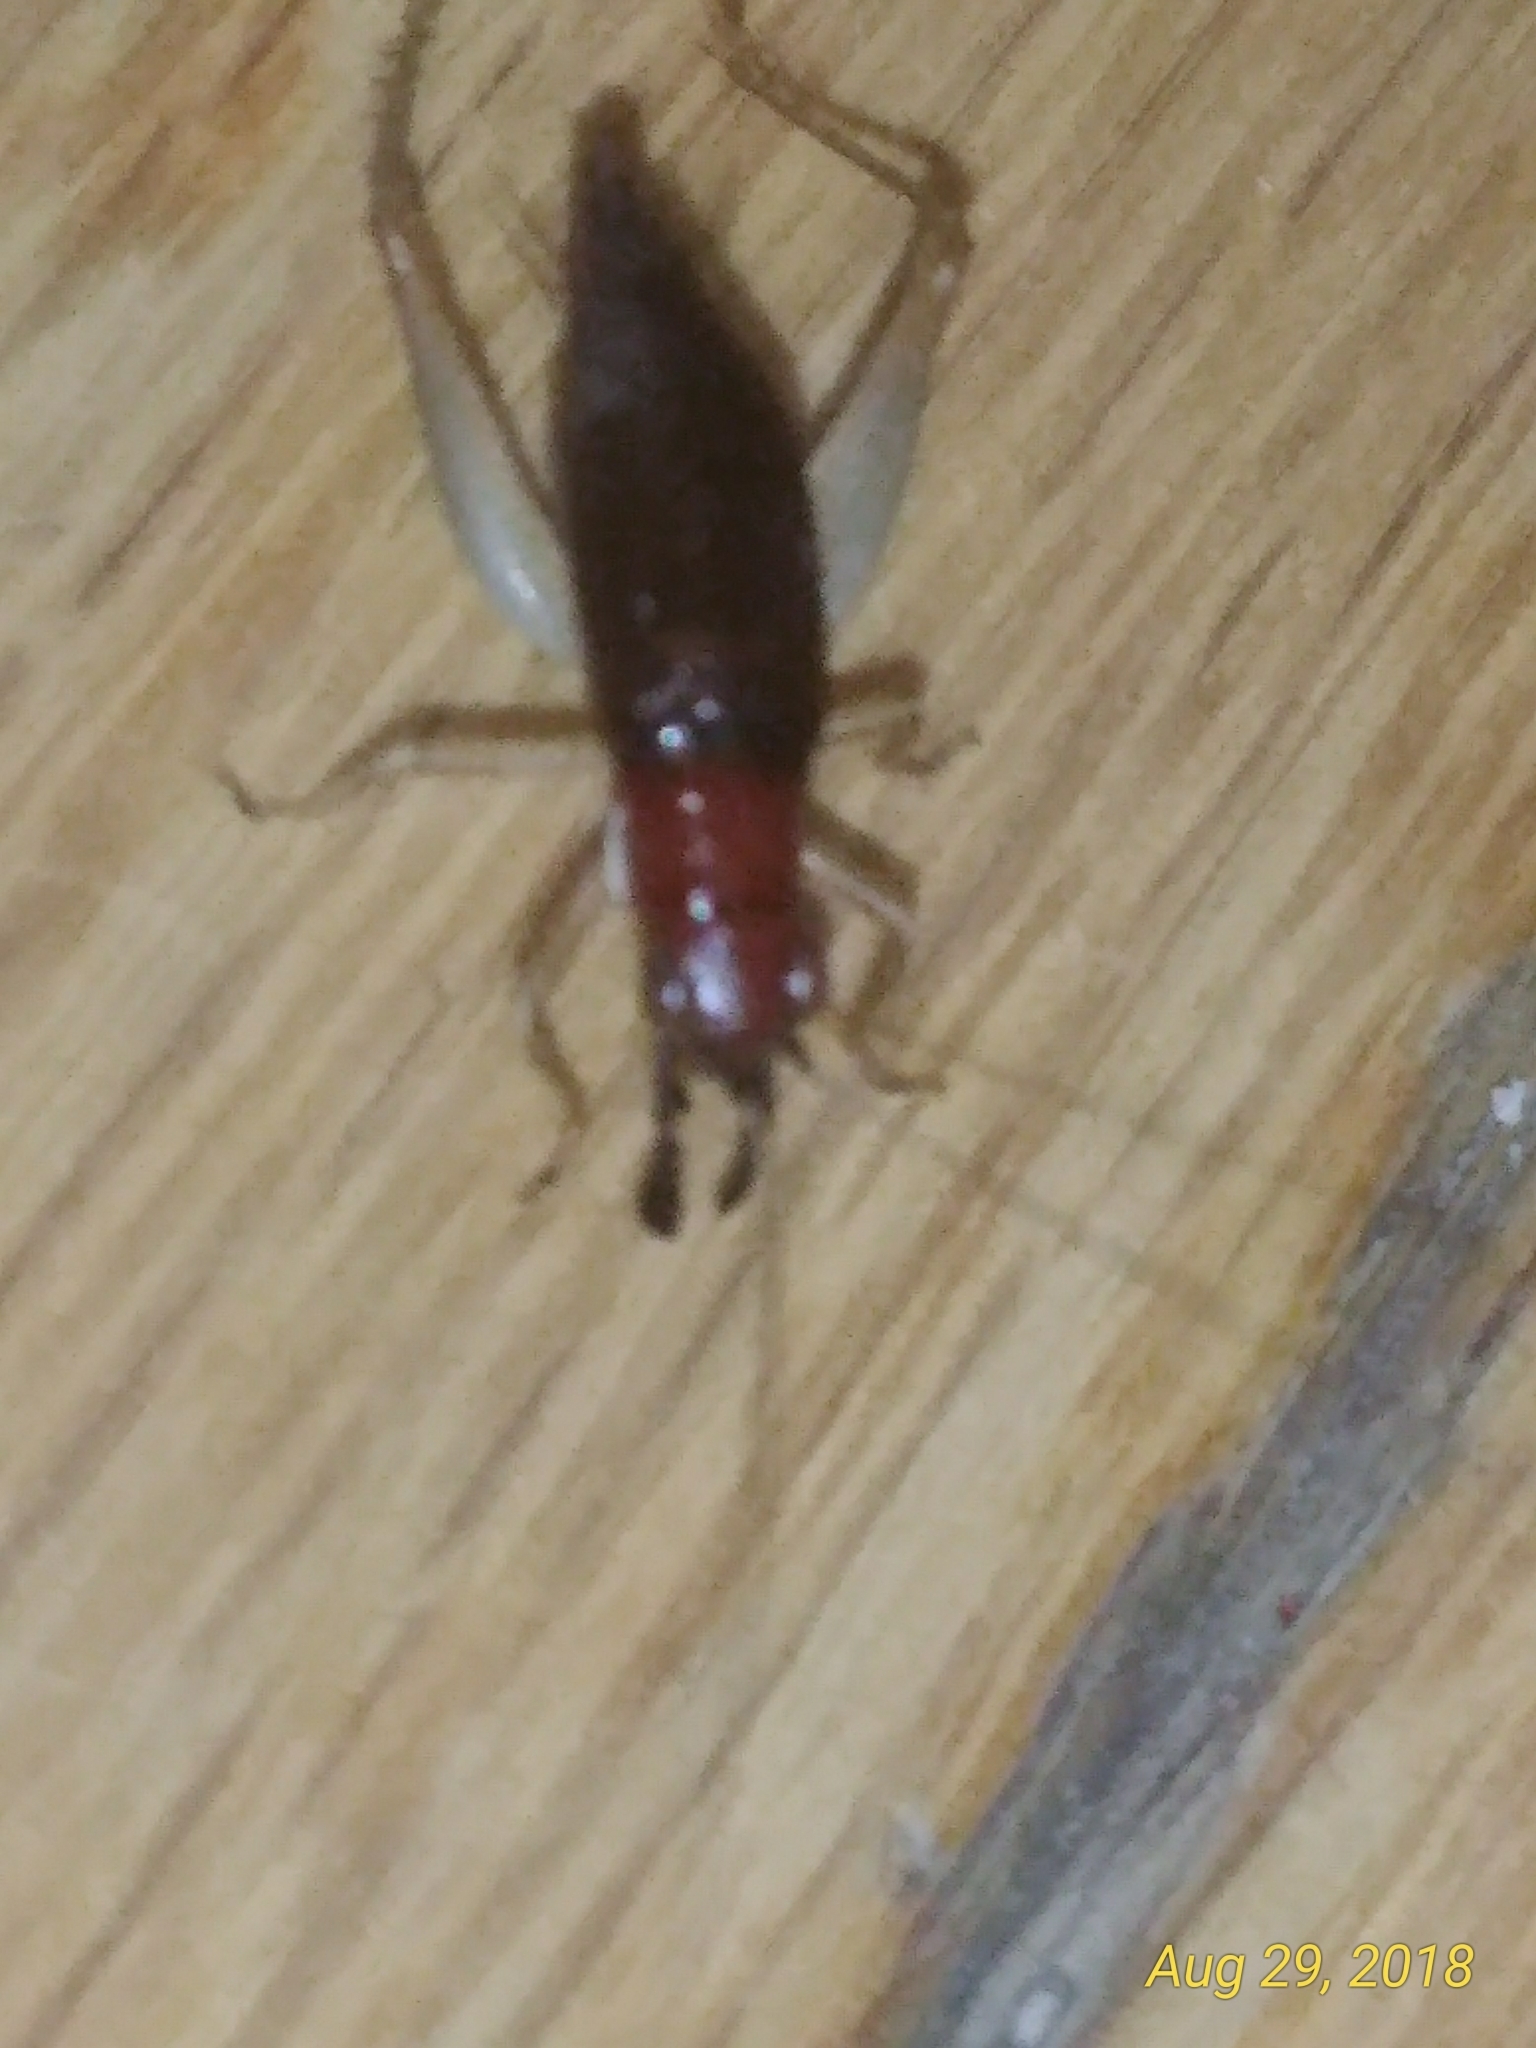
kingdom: Animalia
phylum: Arthropoda
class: Insecta
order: Orthoptera
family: Trigonidiidae
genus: Phyllopalpus
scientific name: Phyllopalpus pulchellus
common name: Handsome trig
